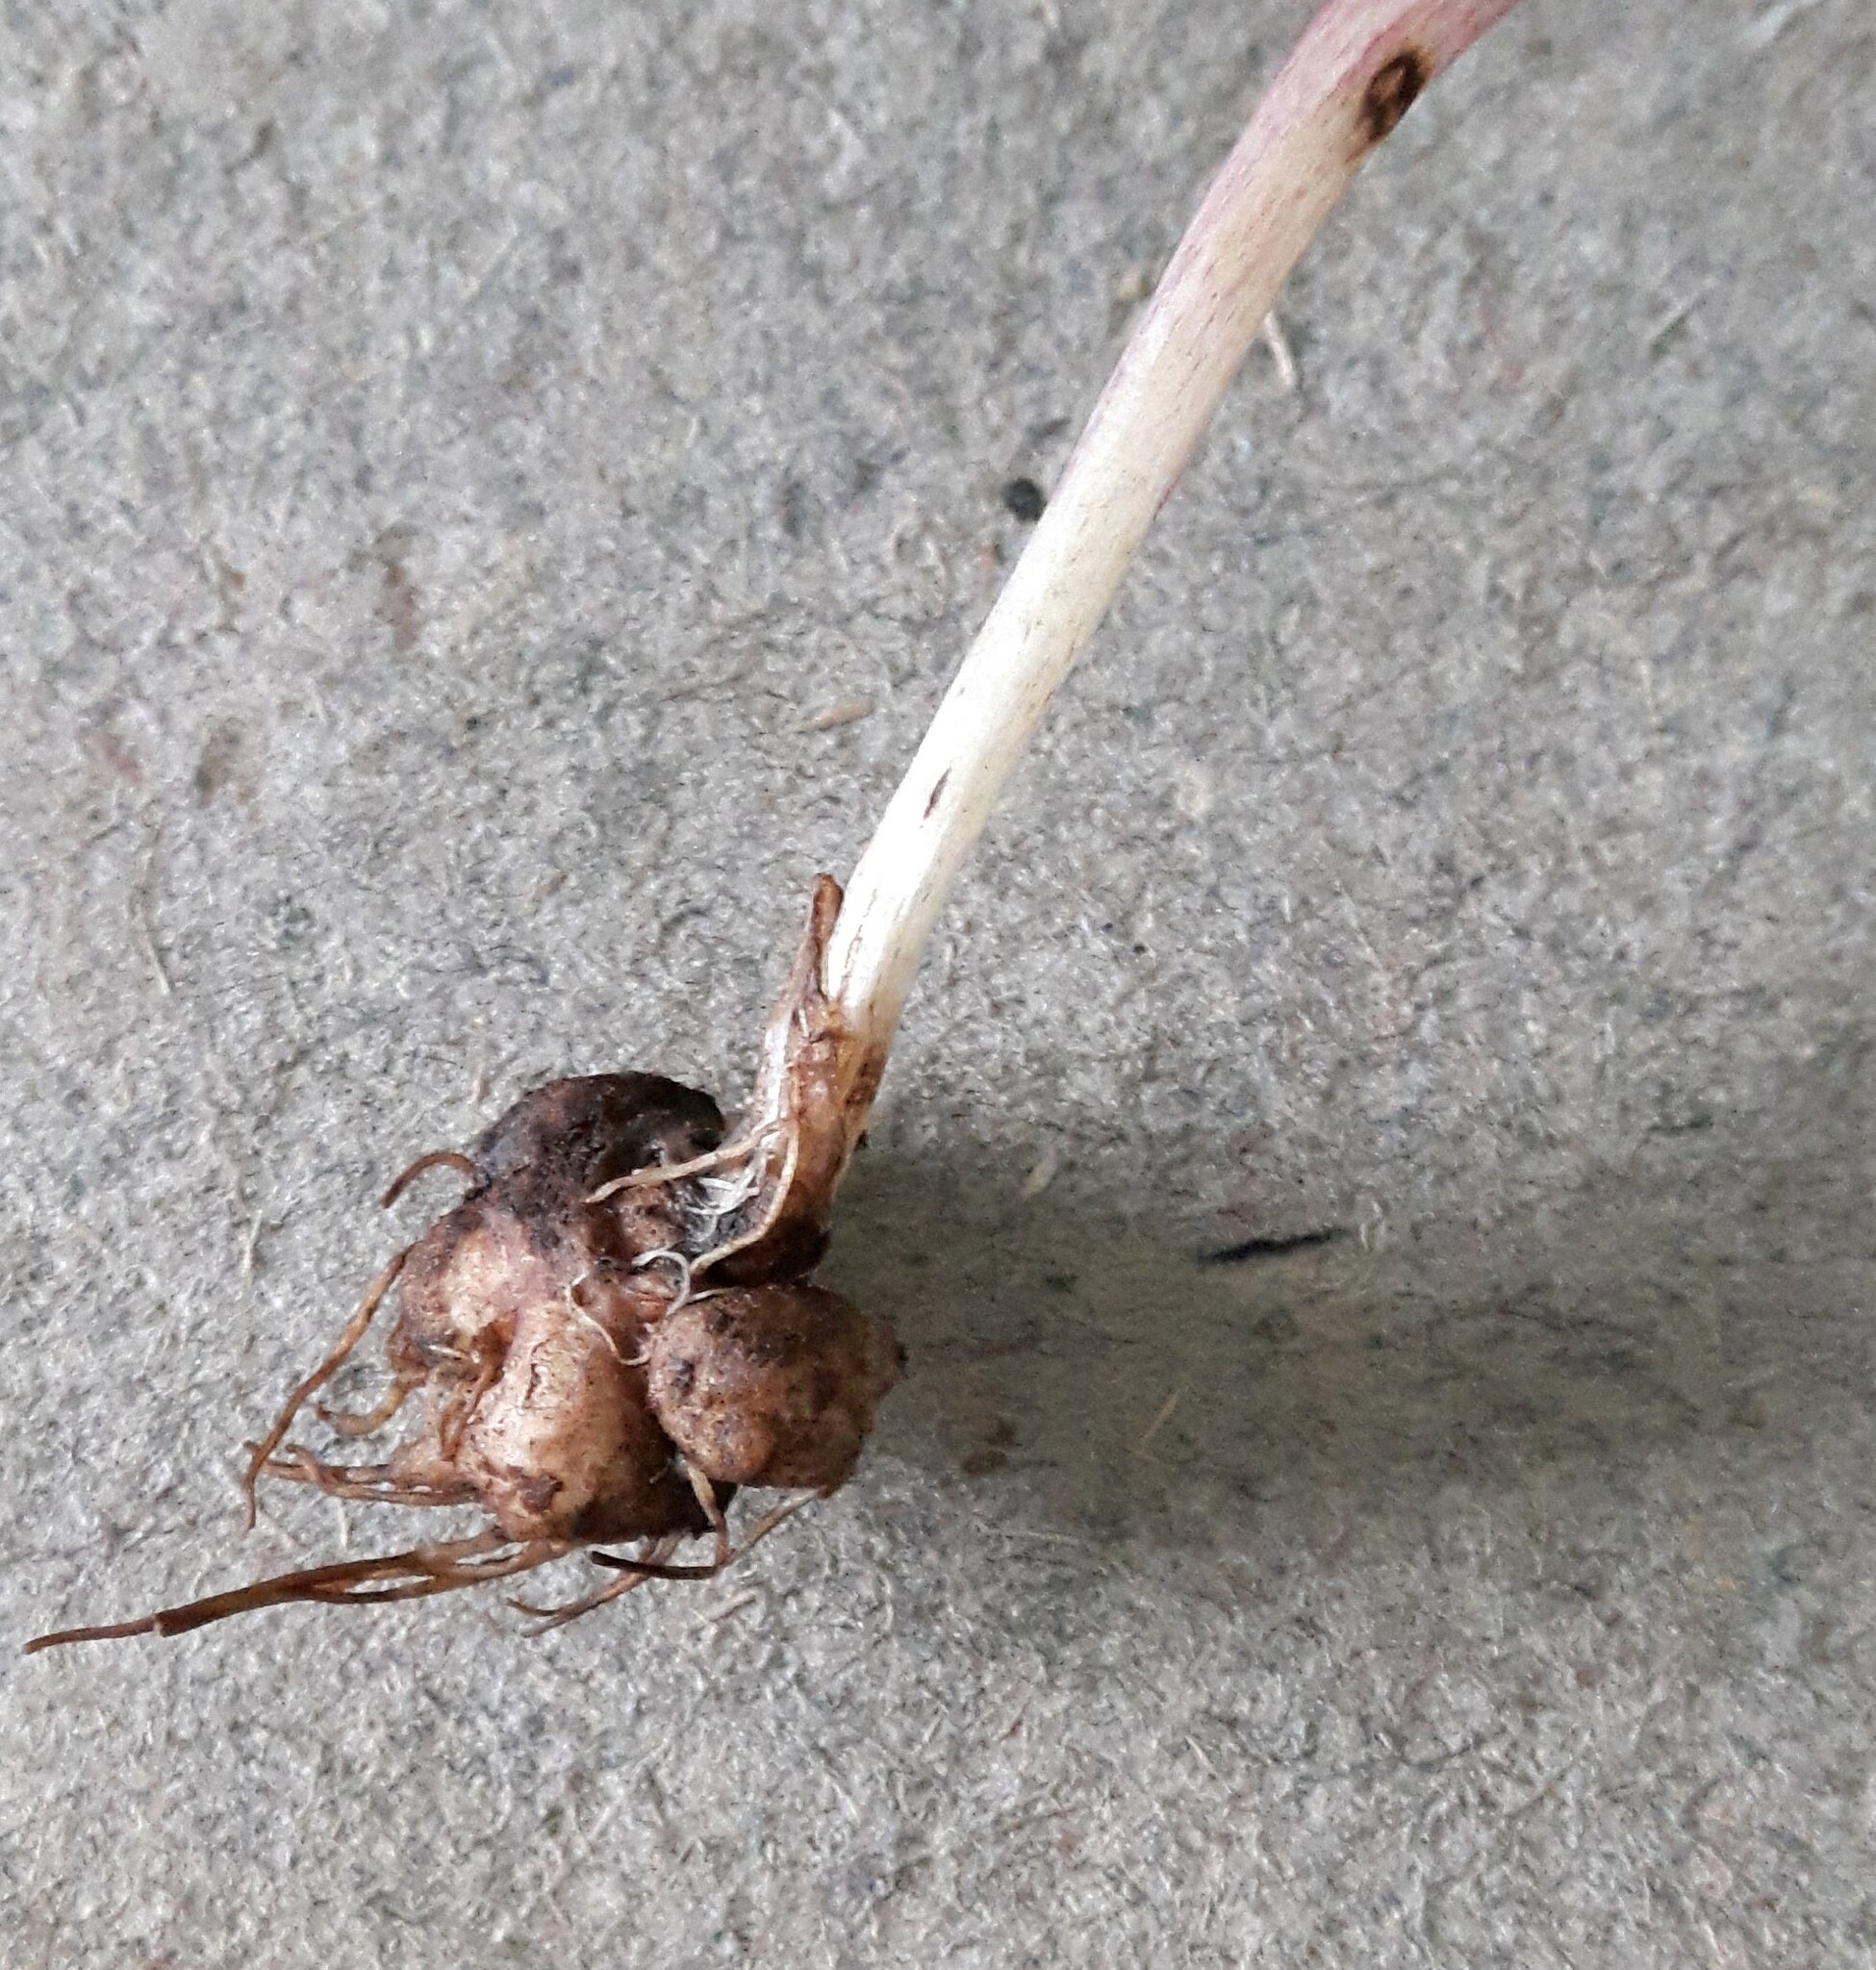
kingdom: Plantae
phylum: Tracheophyta
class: Magnoliopsida
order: Ranunculales
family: Ranunculaceae
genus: Delphinium
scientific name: Delphinium sutherlandii
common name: Sutherland's larkspur
